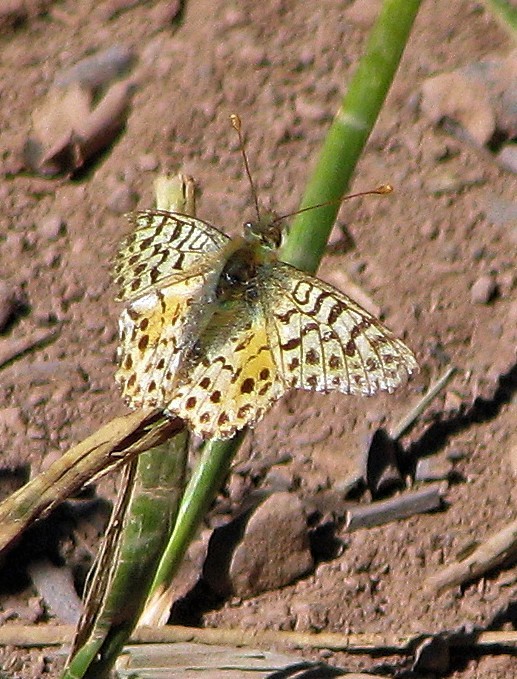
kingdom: Animalia
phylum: Arthropoda
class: Insecta
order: Lepidoptera
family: Nymphalidae
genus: Issoria
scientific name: Issoria Yramea lathonoides
